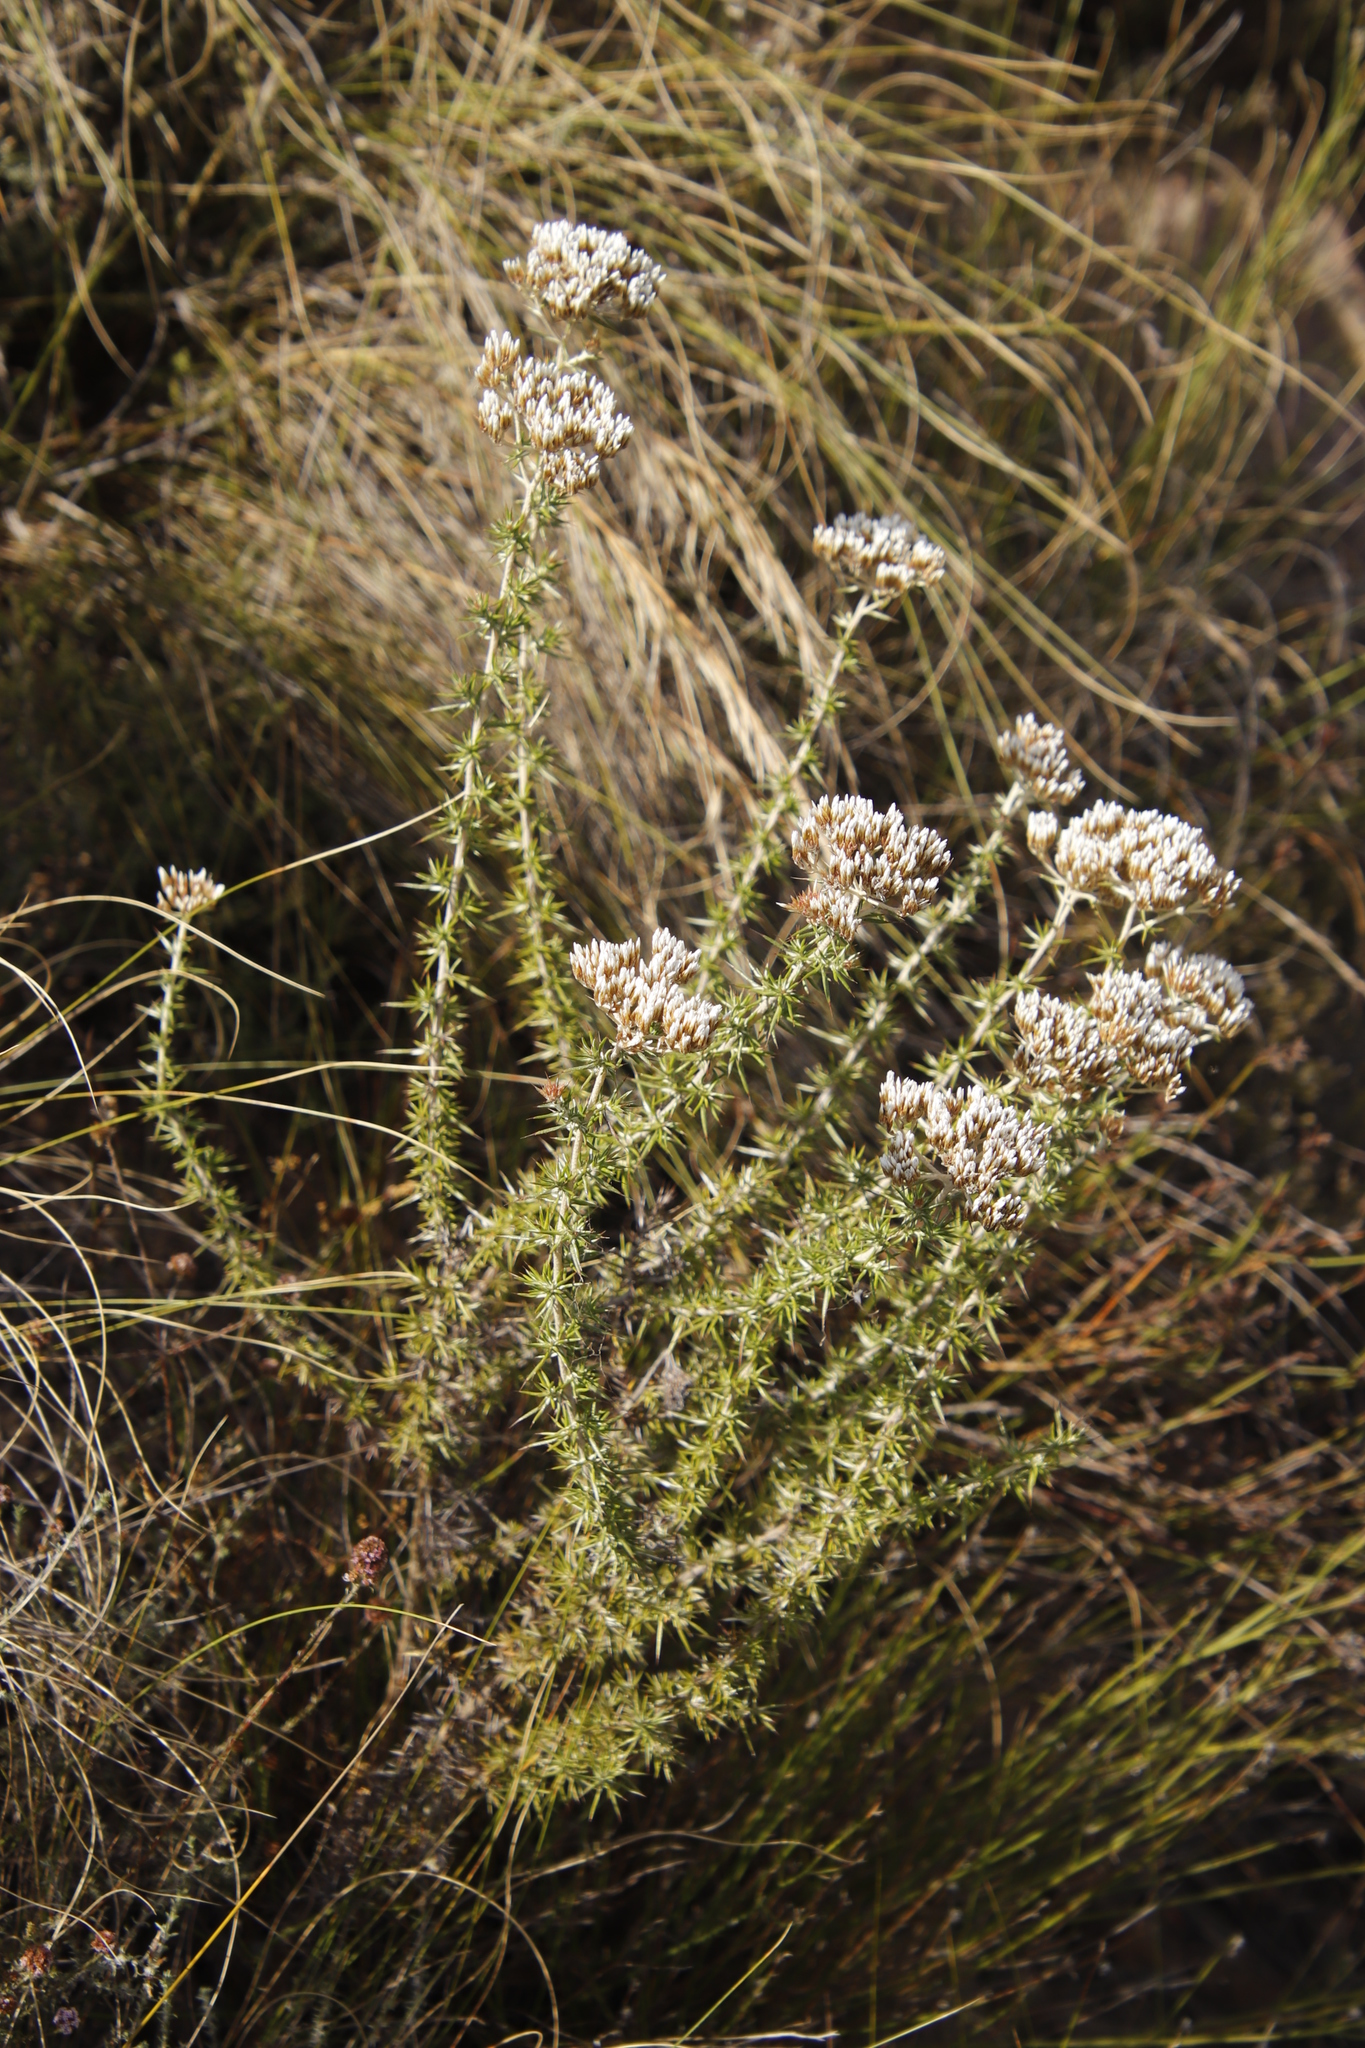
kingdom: Plantae
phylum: Tracheophyta
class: Magnoliopsida
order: Asterales
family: Asteraceae
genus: Metalasia
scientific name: Metalasia acuta
